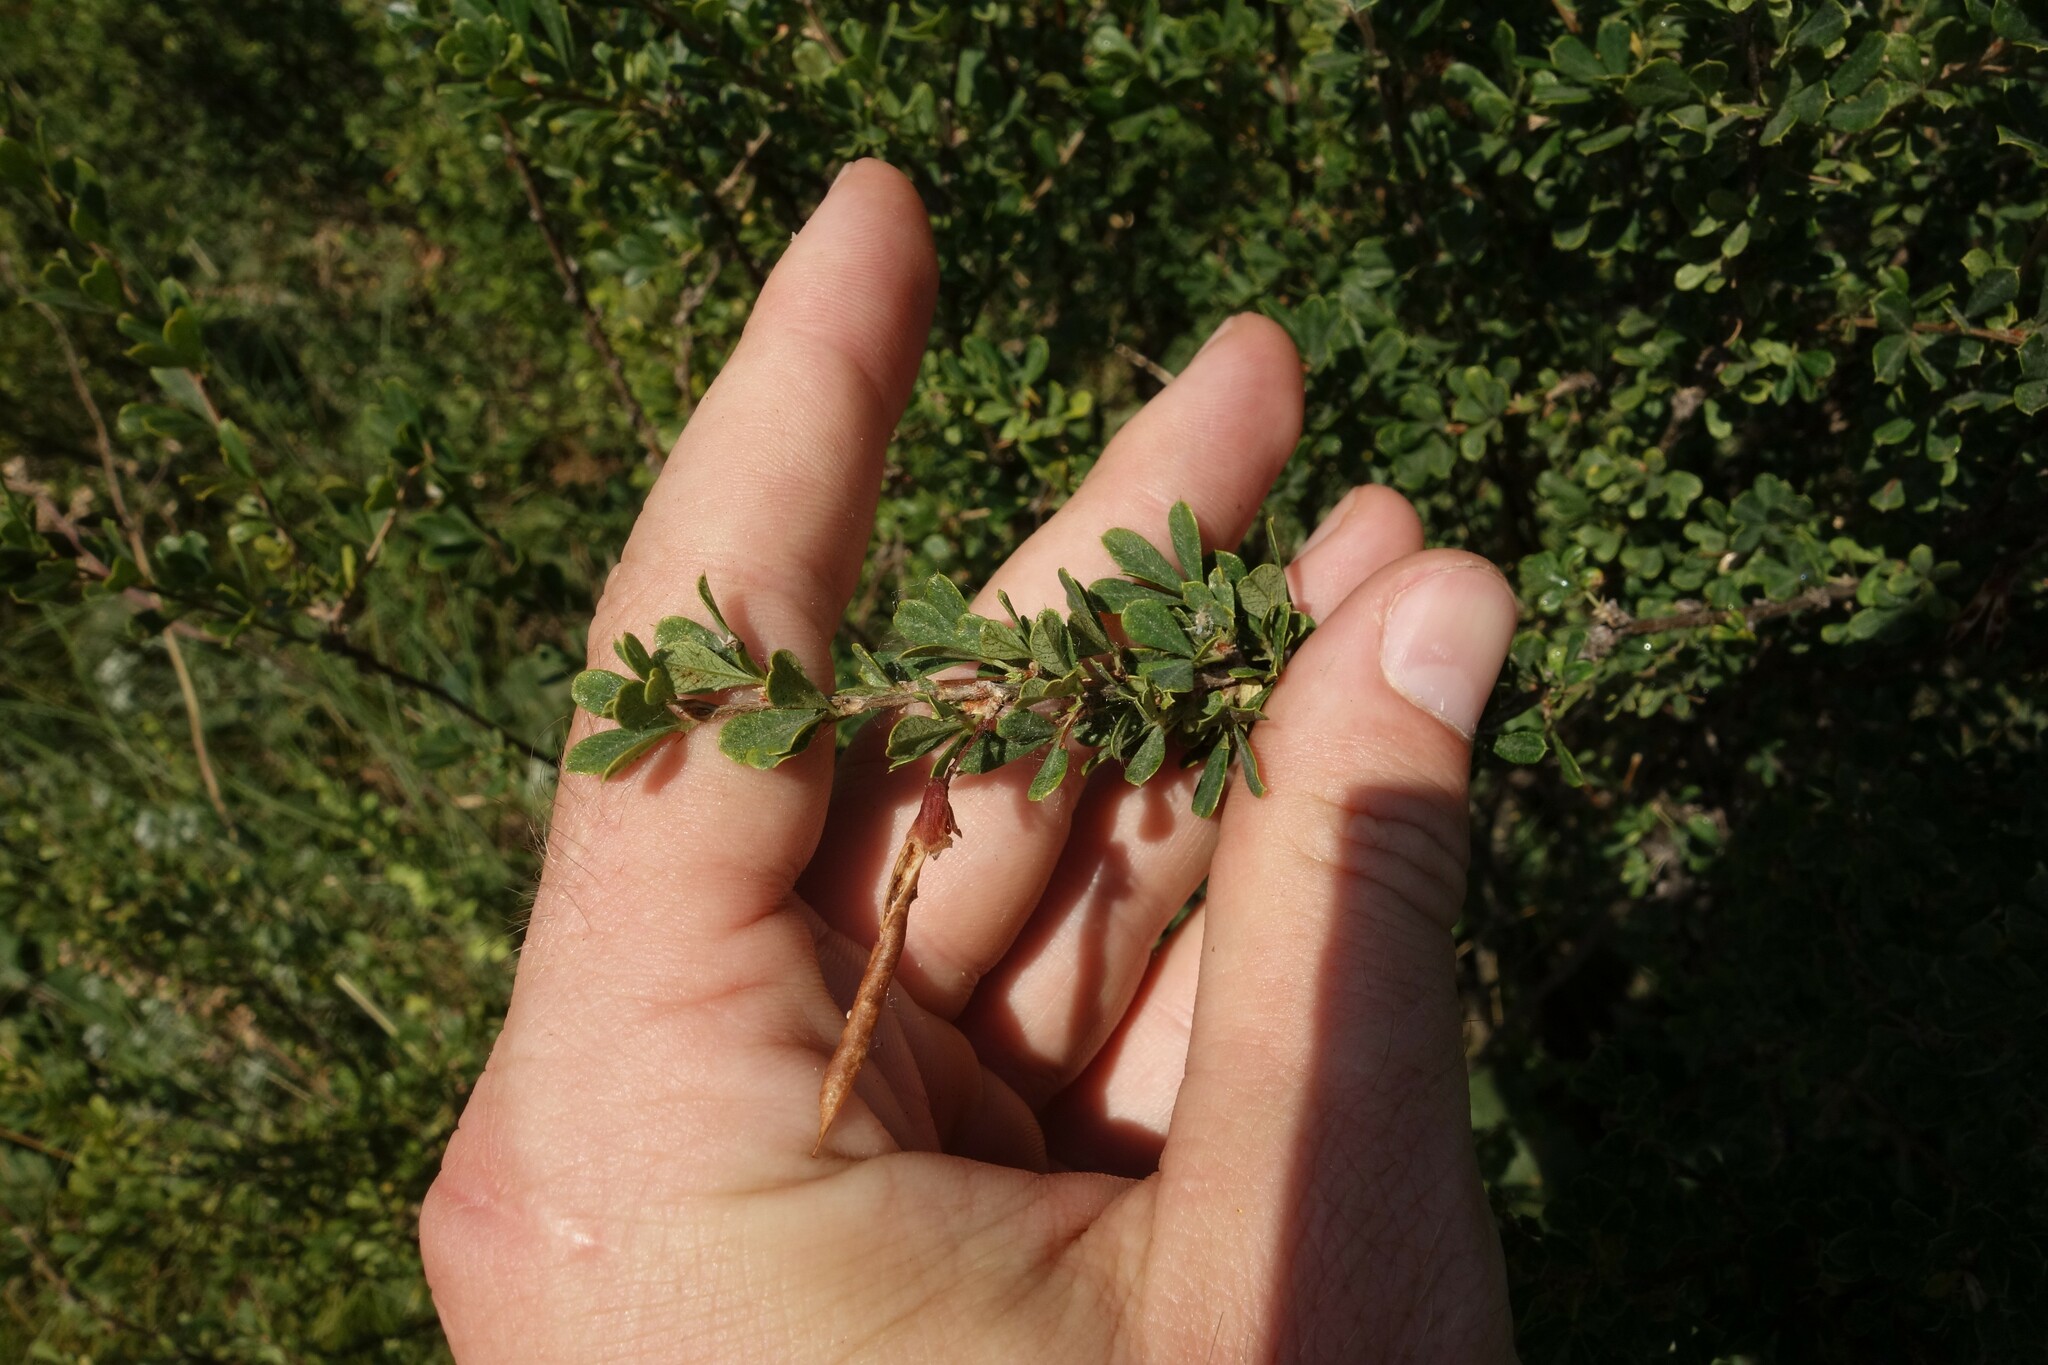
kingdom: Plantae
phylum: Tracheophyta
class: Magnoliopsida
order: Fabales
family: Fabaceae
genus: Caragana
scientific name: Caragana frutex
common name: Russian peashrub
